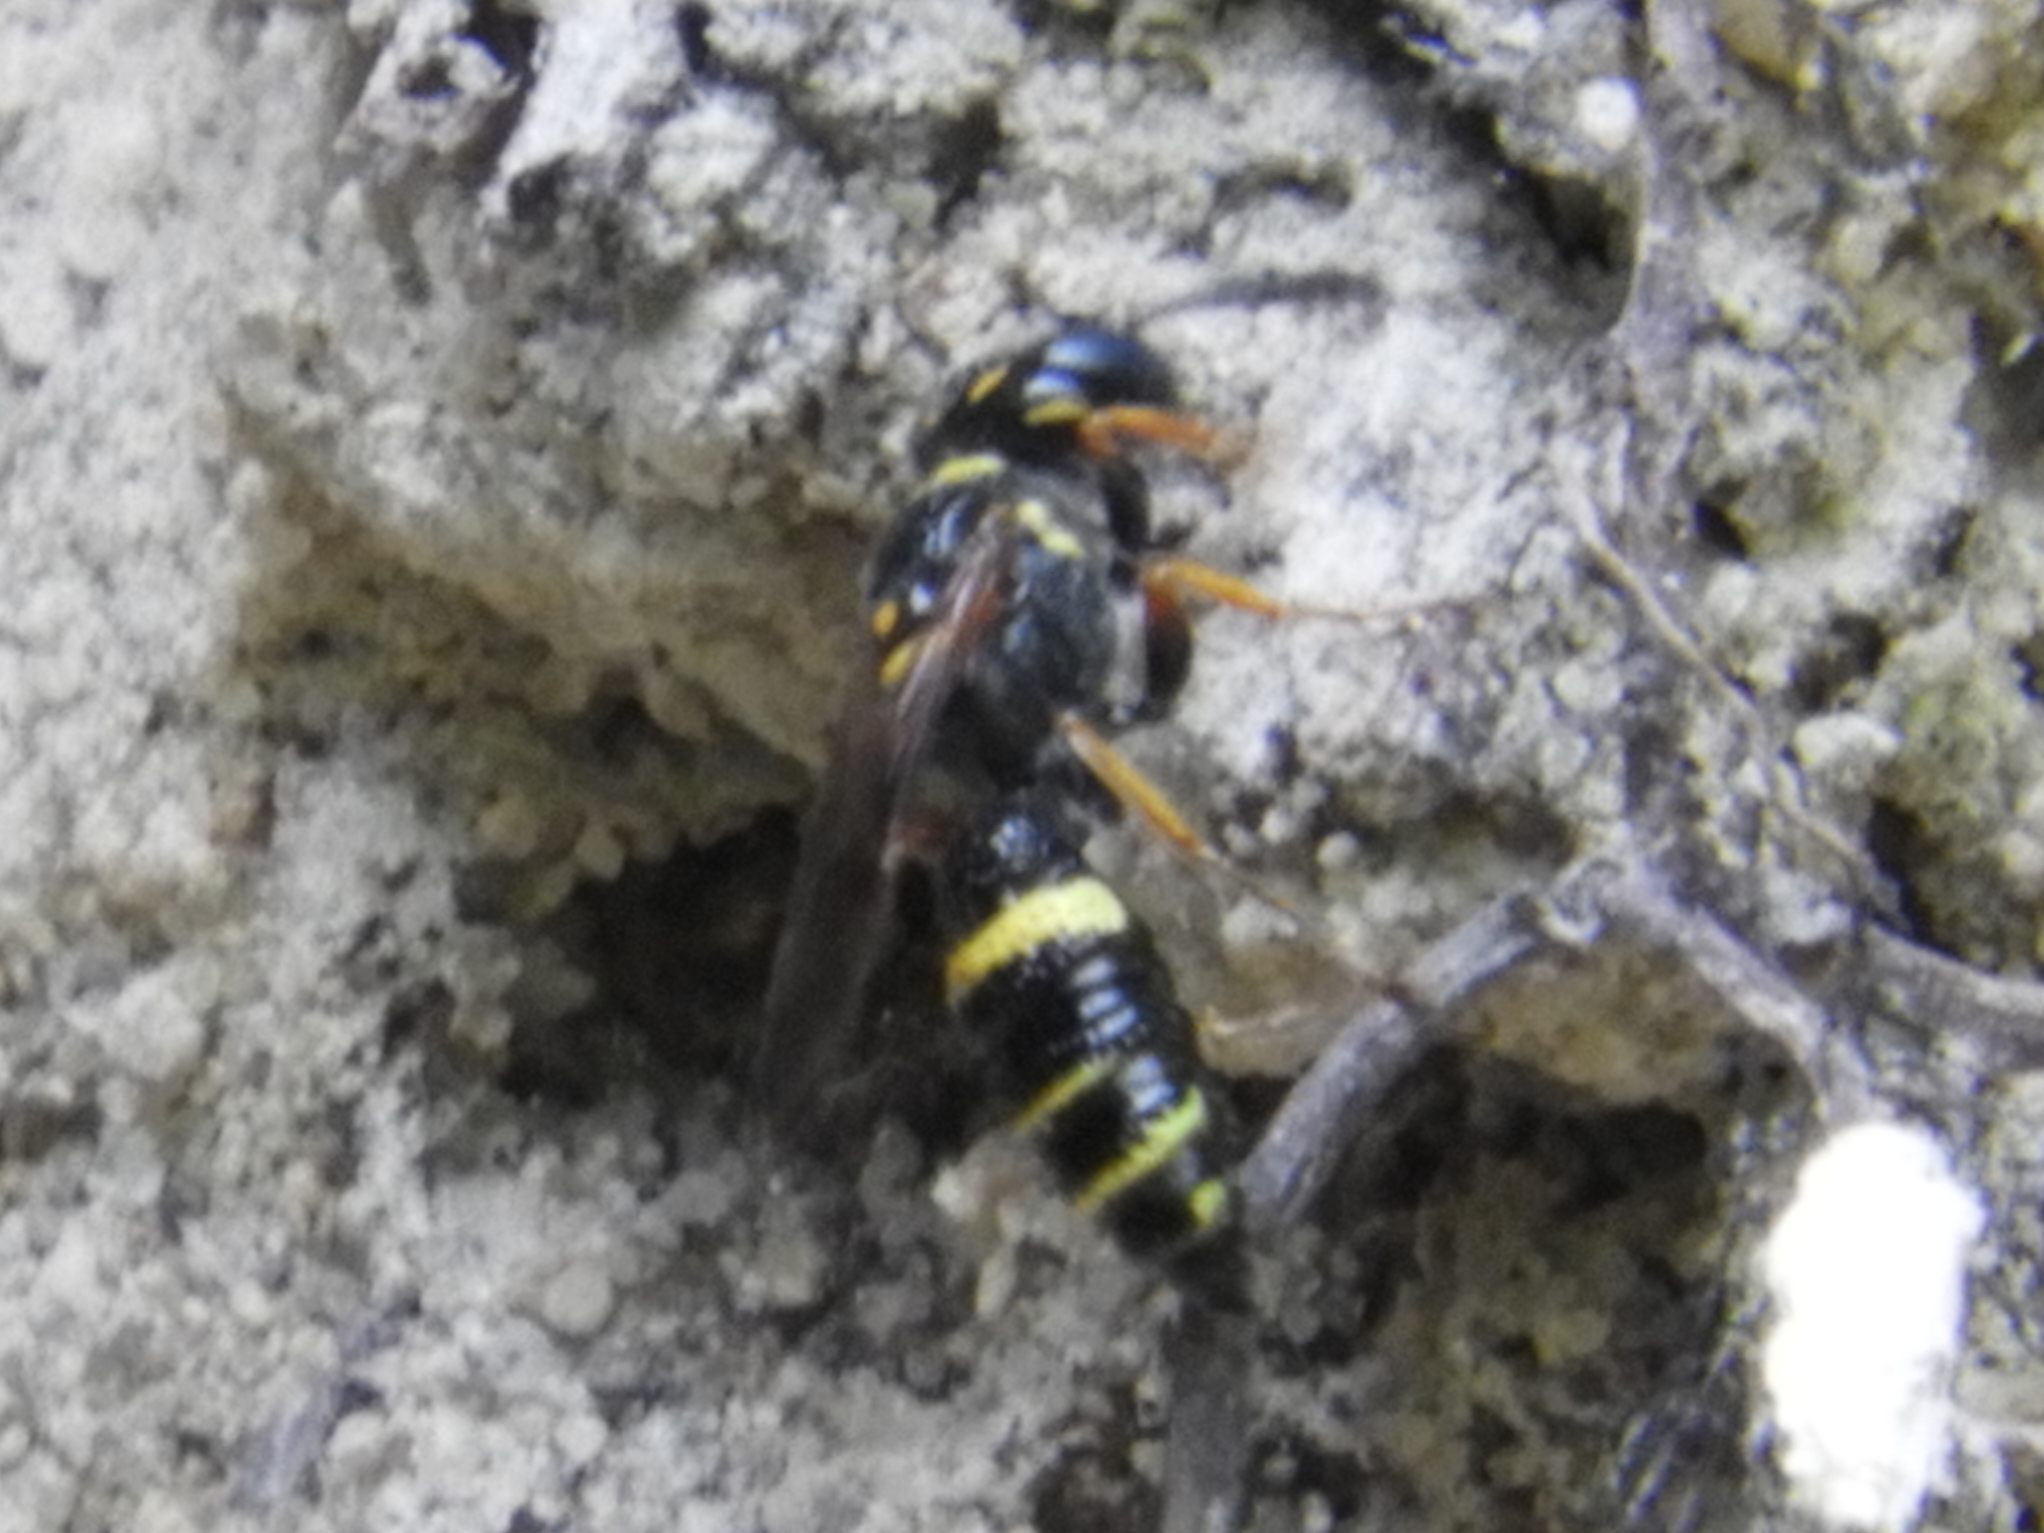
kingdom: Animalia
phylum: Arthropoda
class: Insecta
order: Hymenoptera
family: Crabronidae
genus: Philanthus
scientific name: Philanthus gibbosus
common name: Humped beewolf
